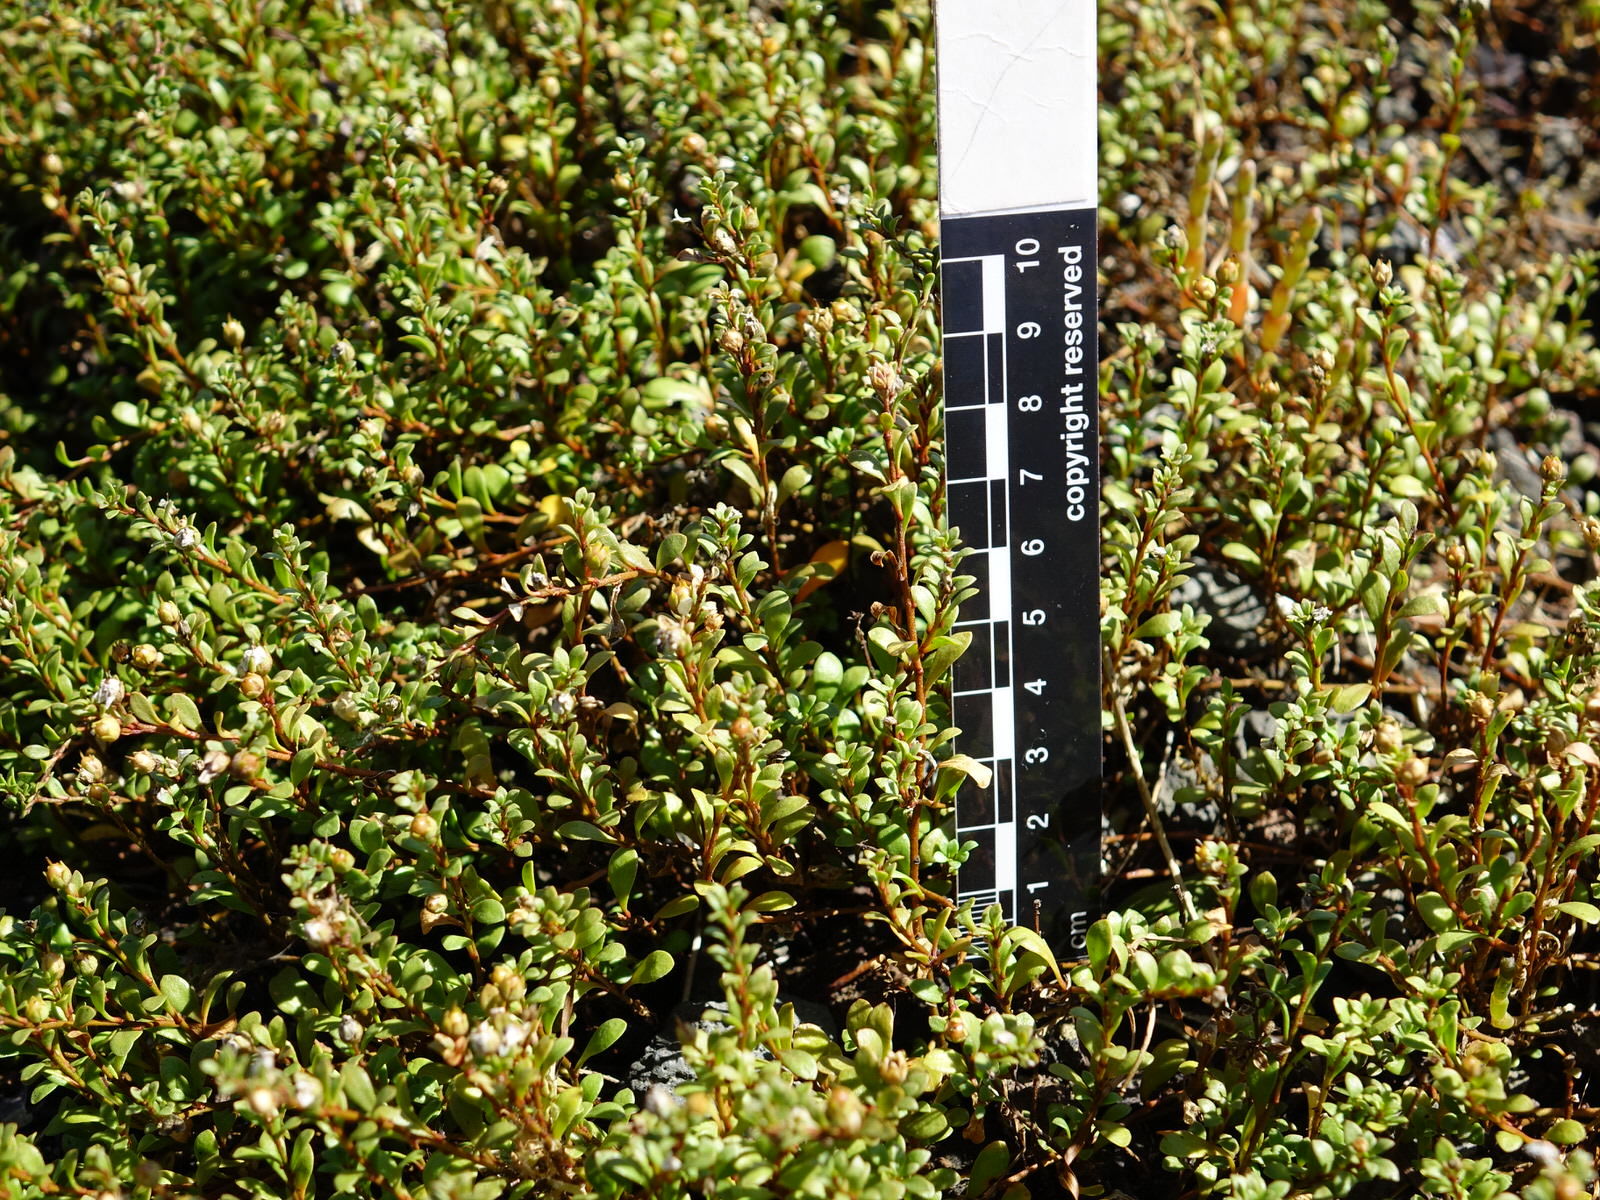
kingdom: Plantae
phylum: Tracheophyta
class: Magnoliopsida
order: Ericales
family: Primulaceae
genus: Samolus
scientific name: Samolus repens
